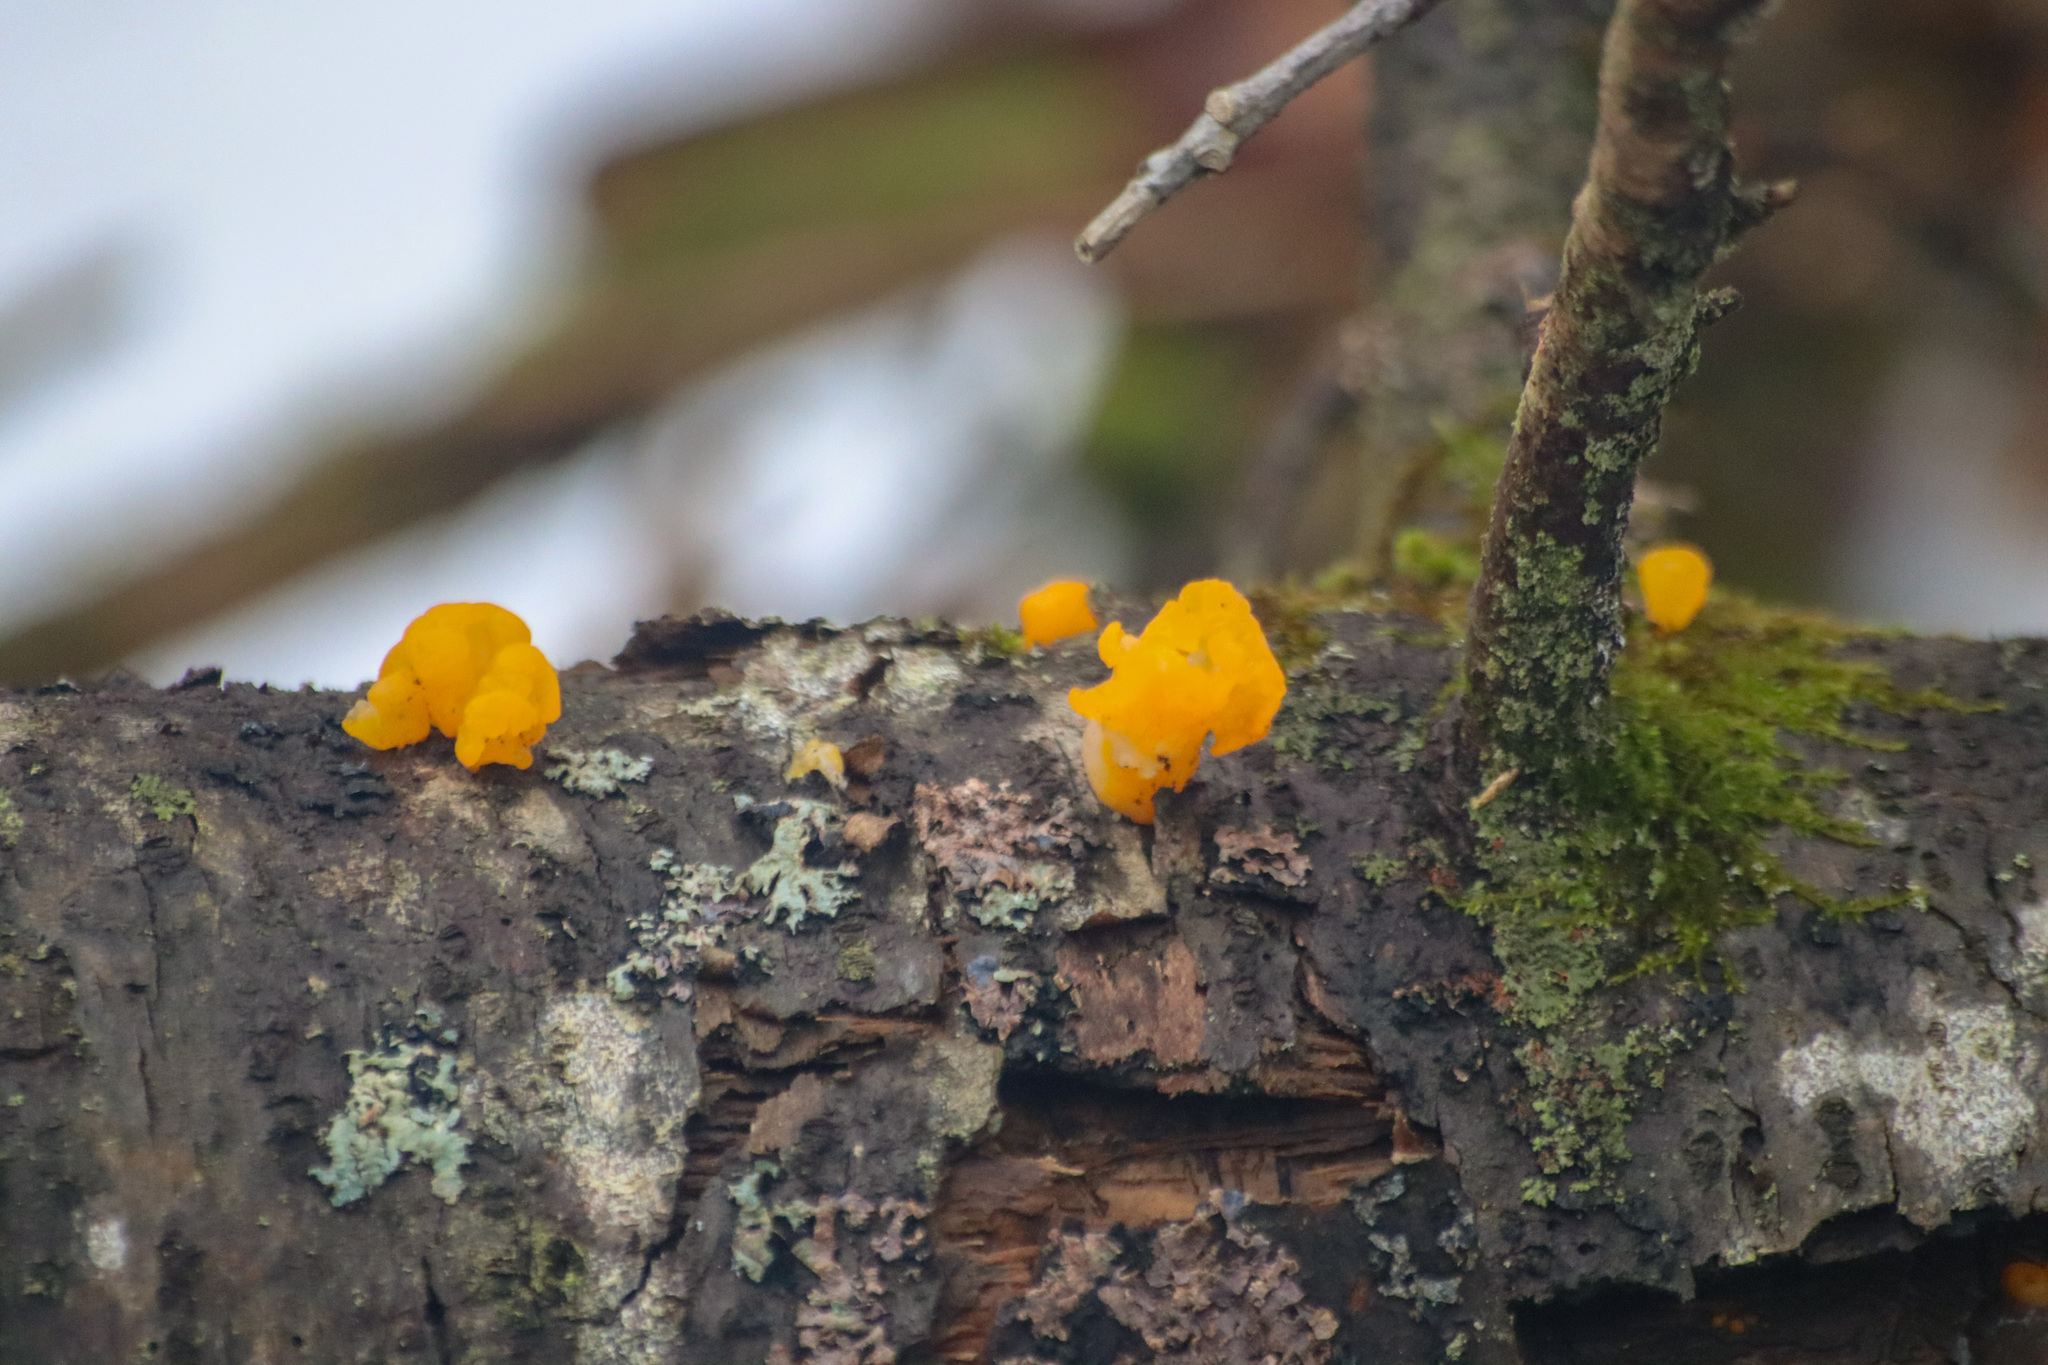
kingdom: Fungi
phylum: Basidiomycota
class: Dacrymycetes
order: Dacrymycetales
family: Dacrymycetaceae
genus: Dacrymyces
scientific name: Dacrymyces chrysospermus
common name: Orange jelly spot
